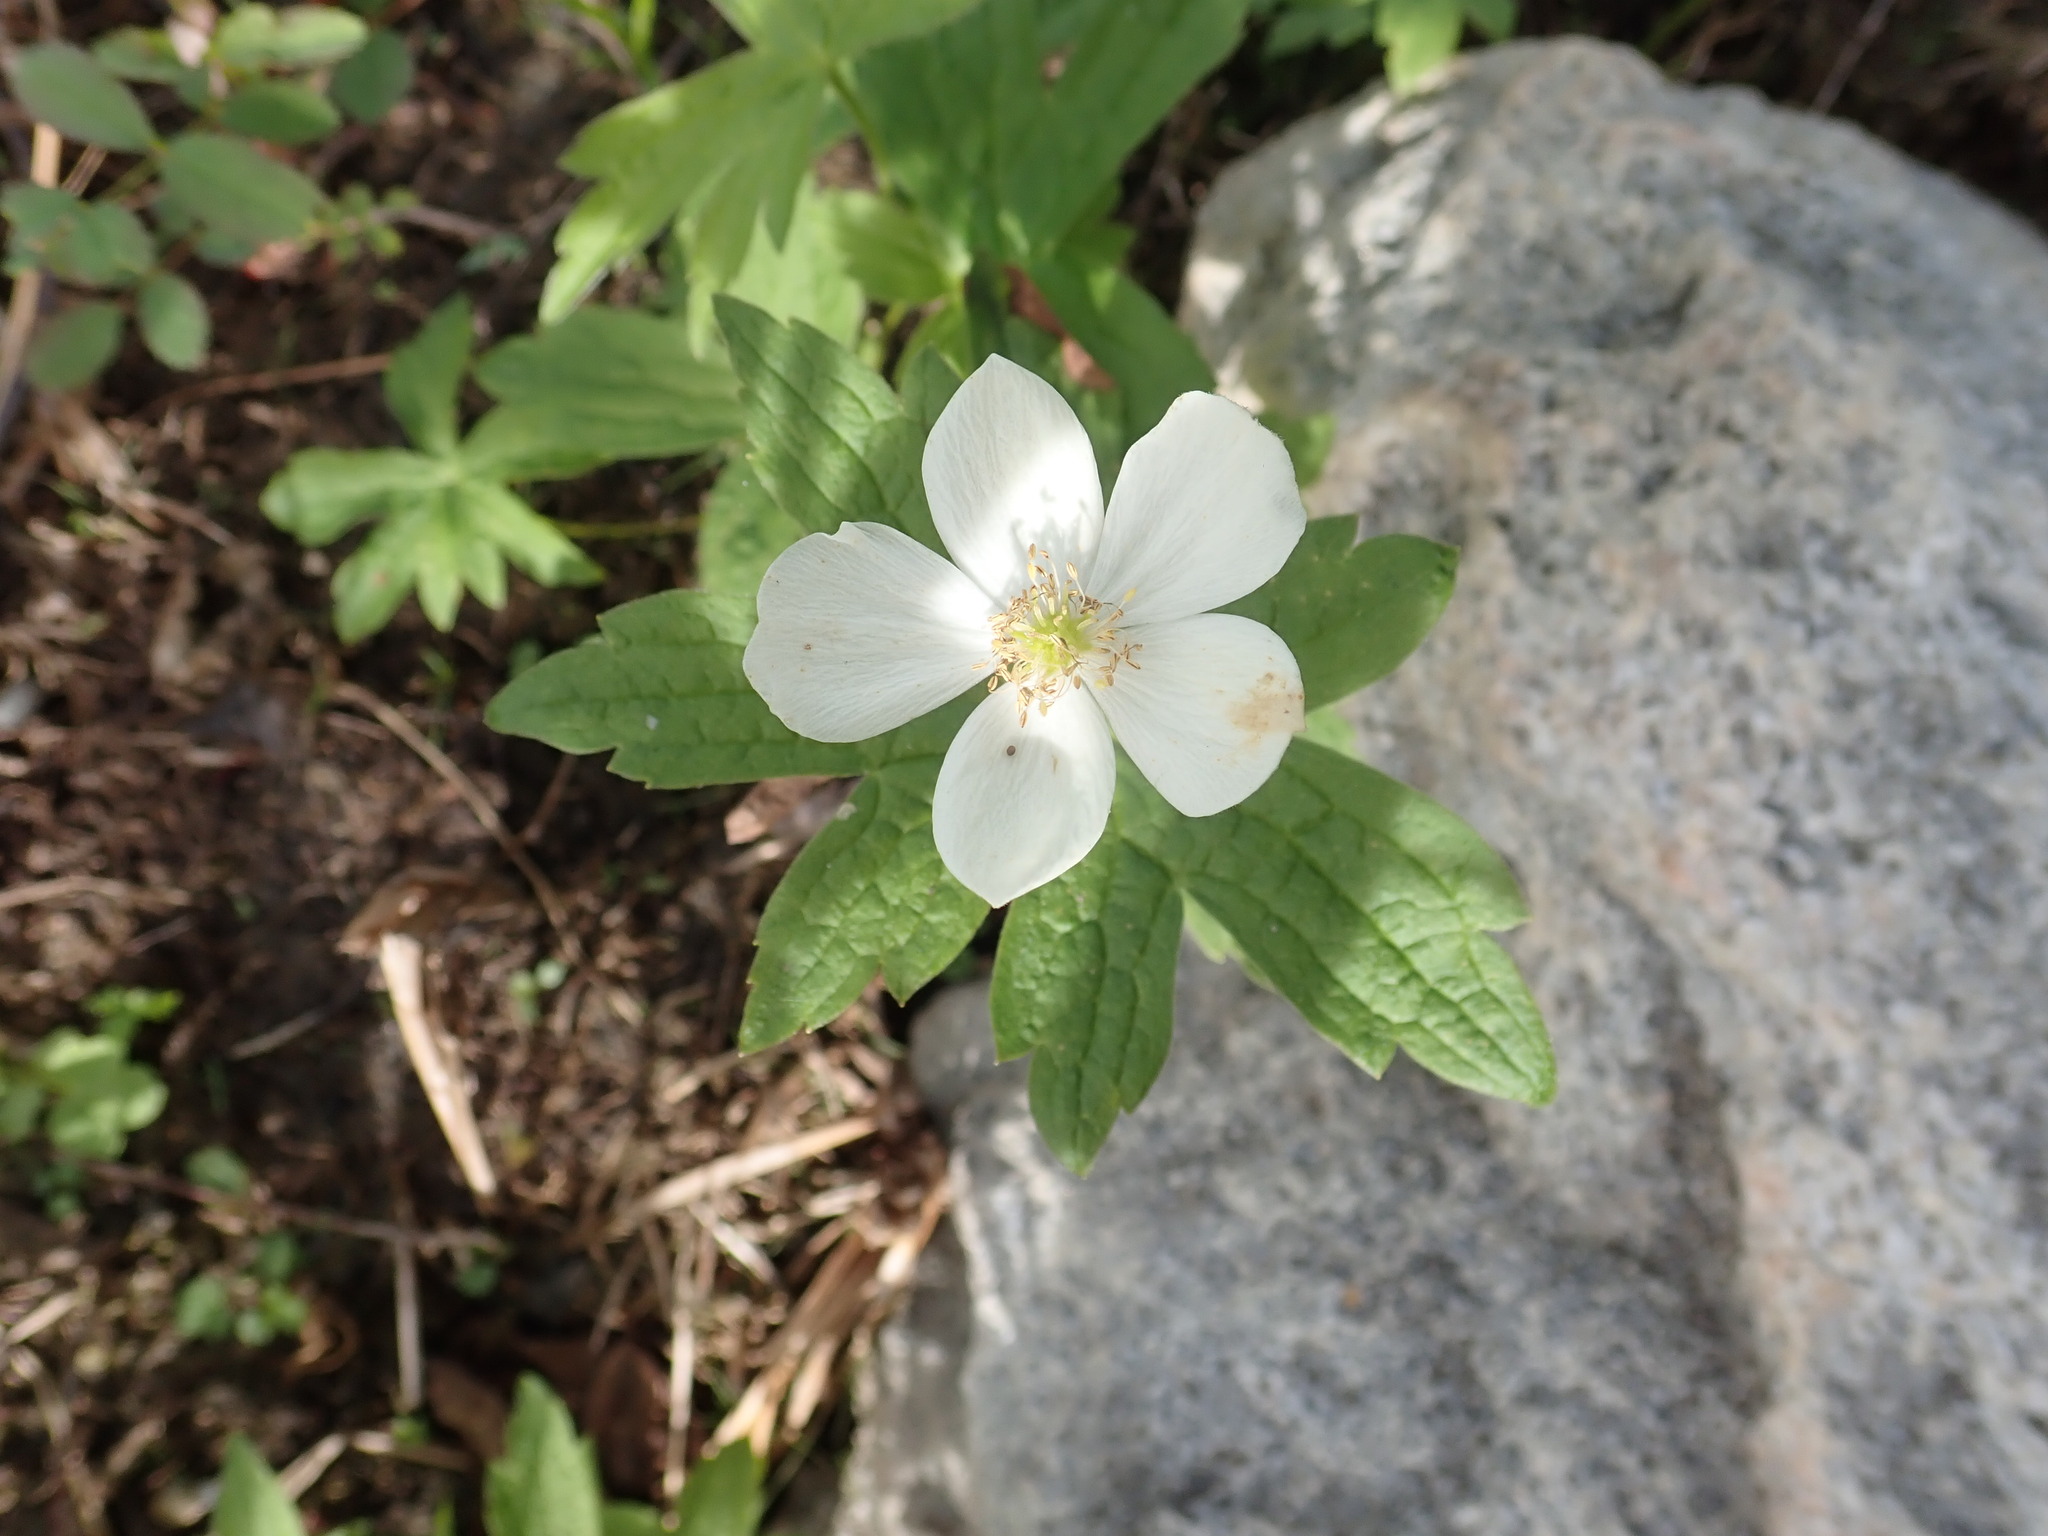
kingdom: Plantae
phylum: Tracheophyta
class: Magnoliopsida
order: Ranunculales
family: Ranunculaceae
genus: Anemonastrum
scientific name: Anemonastrum canadense
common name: Canada anemone
